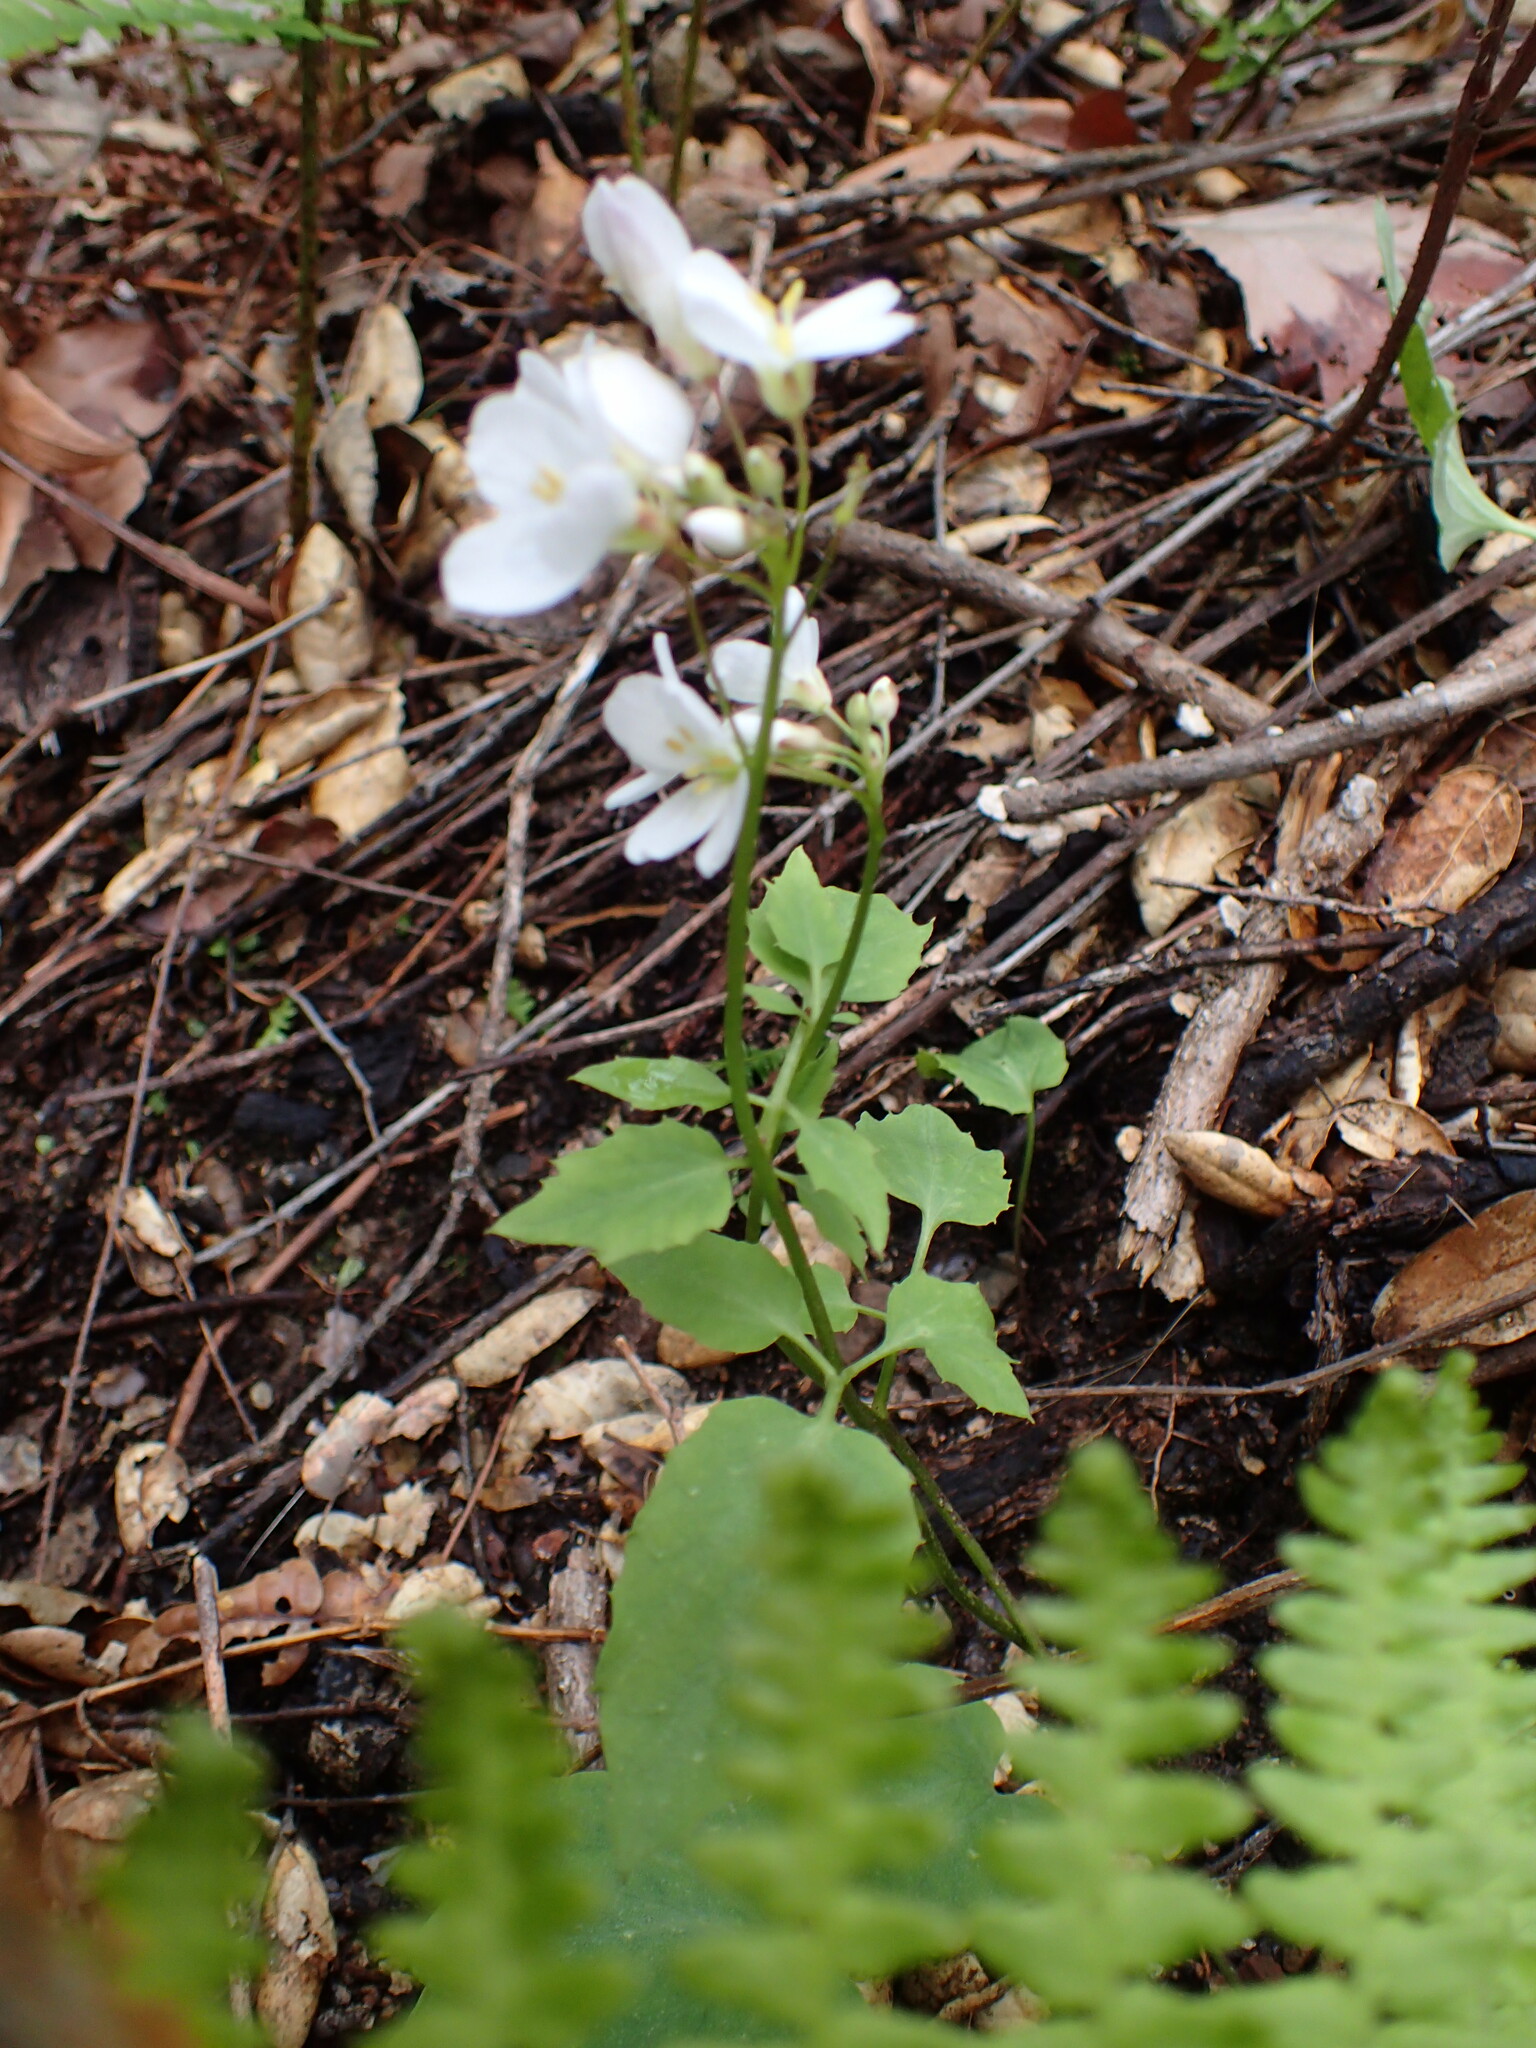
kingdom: Plantae
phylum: Tracheophyta
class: Magnoliopsida
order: Brassicales
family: Brassicaceae
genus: Cardamine
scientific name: Cardamine californica
